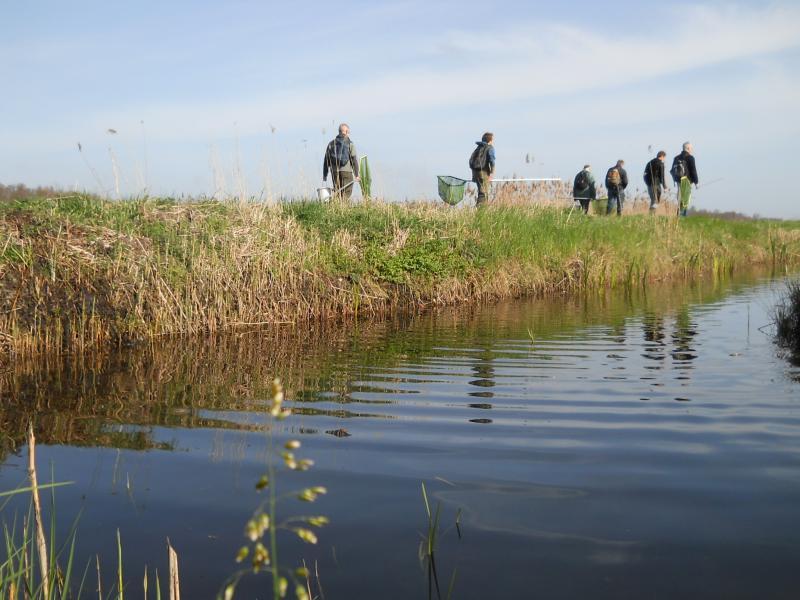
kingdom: Plantae
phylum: Tracheophyta
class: Liliopsida
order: Poales
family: Poaceae
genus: Anthoxanthum
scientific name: Anthoxanthum nitens
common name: Holy grass
